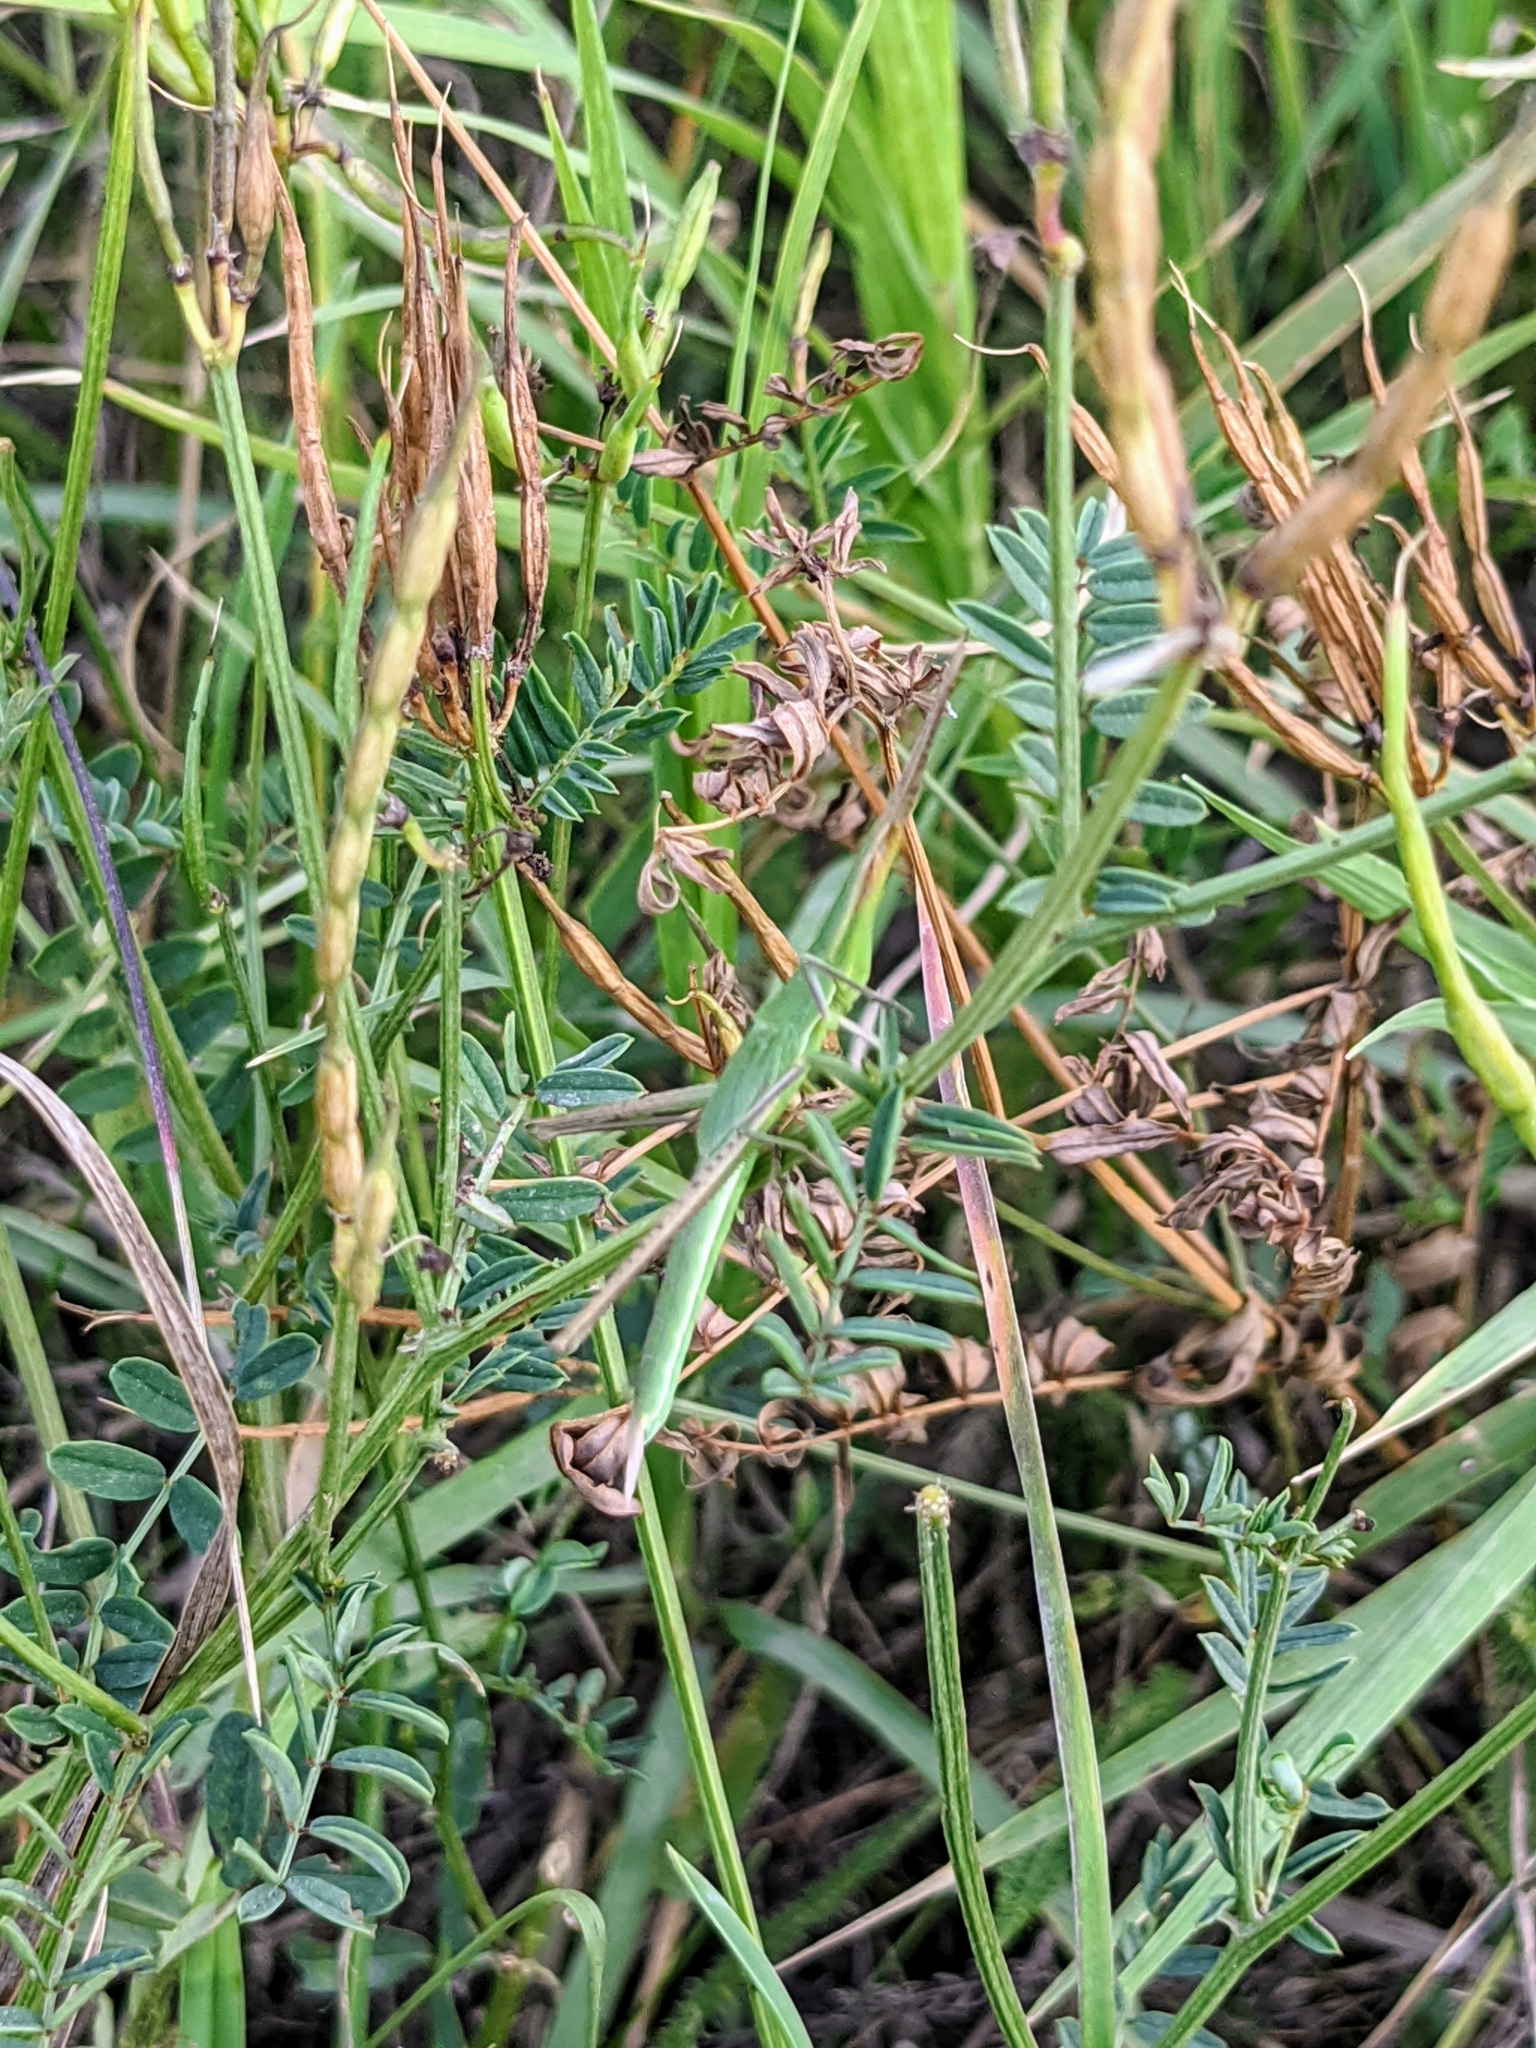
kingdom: Animalia
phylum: Arthropoda
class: Insecta
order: Orthoptera
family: Acrididae
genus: Acrida
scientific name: Acrida ungarica
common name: Common cone-headed grasshopper
